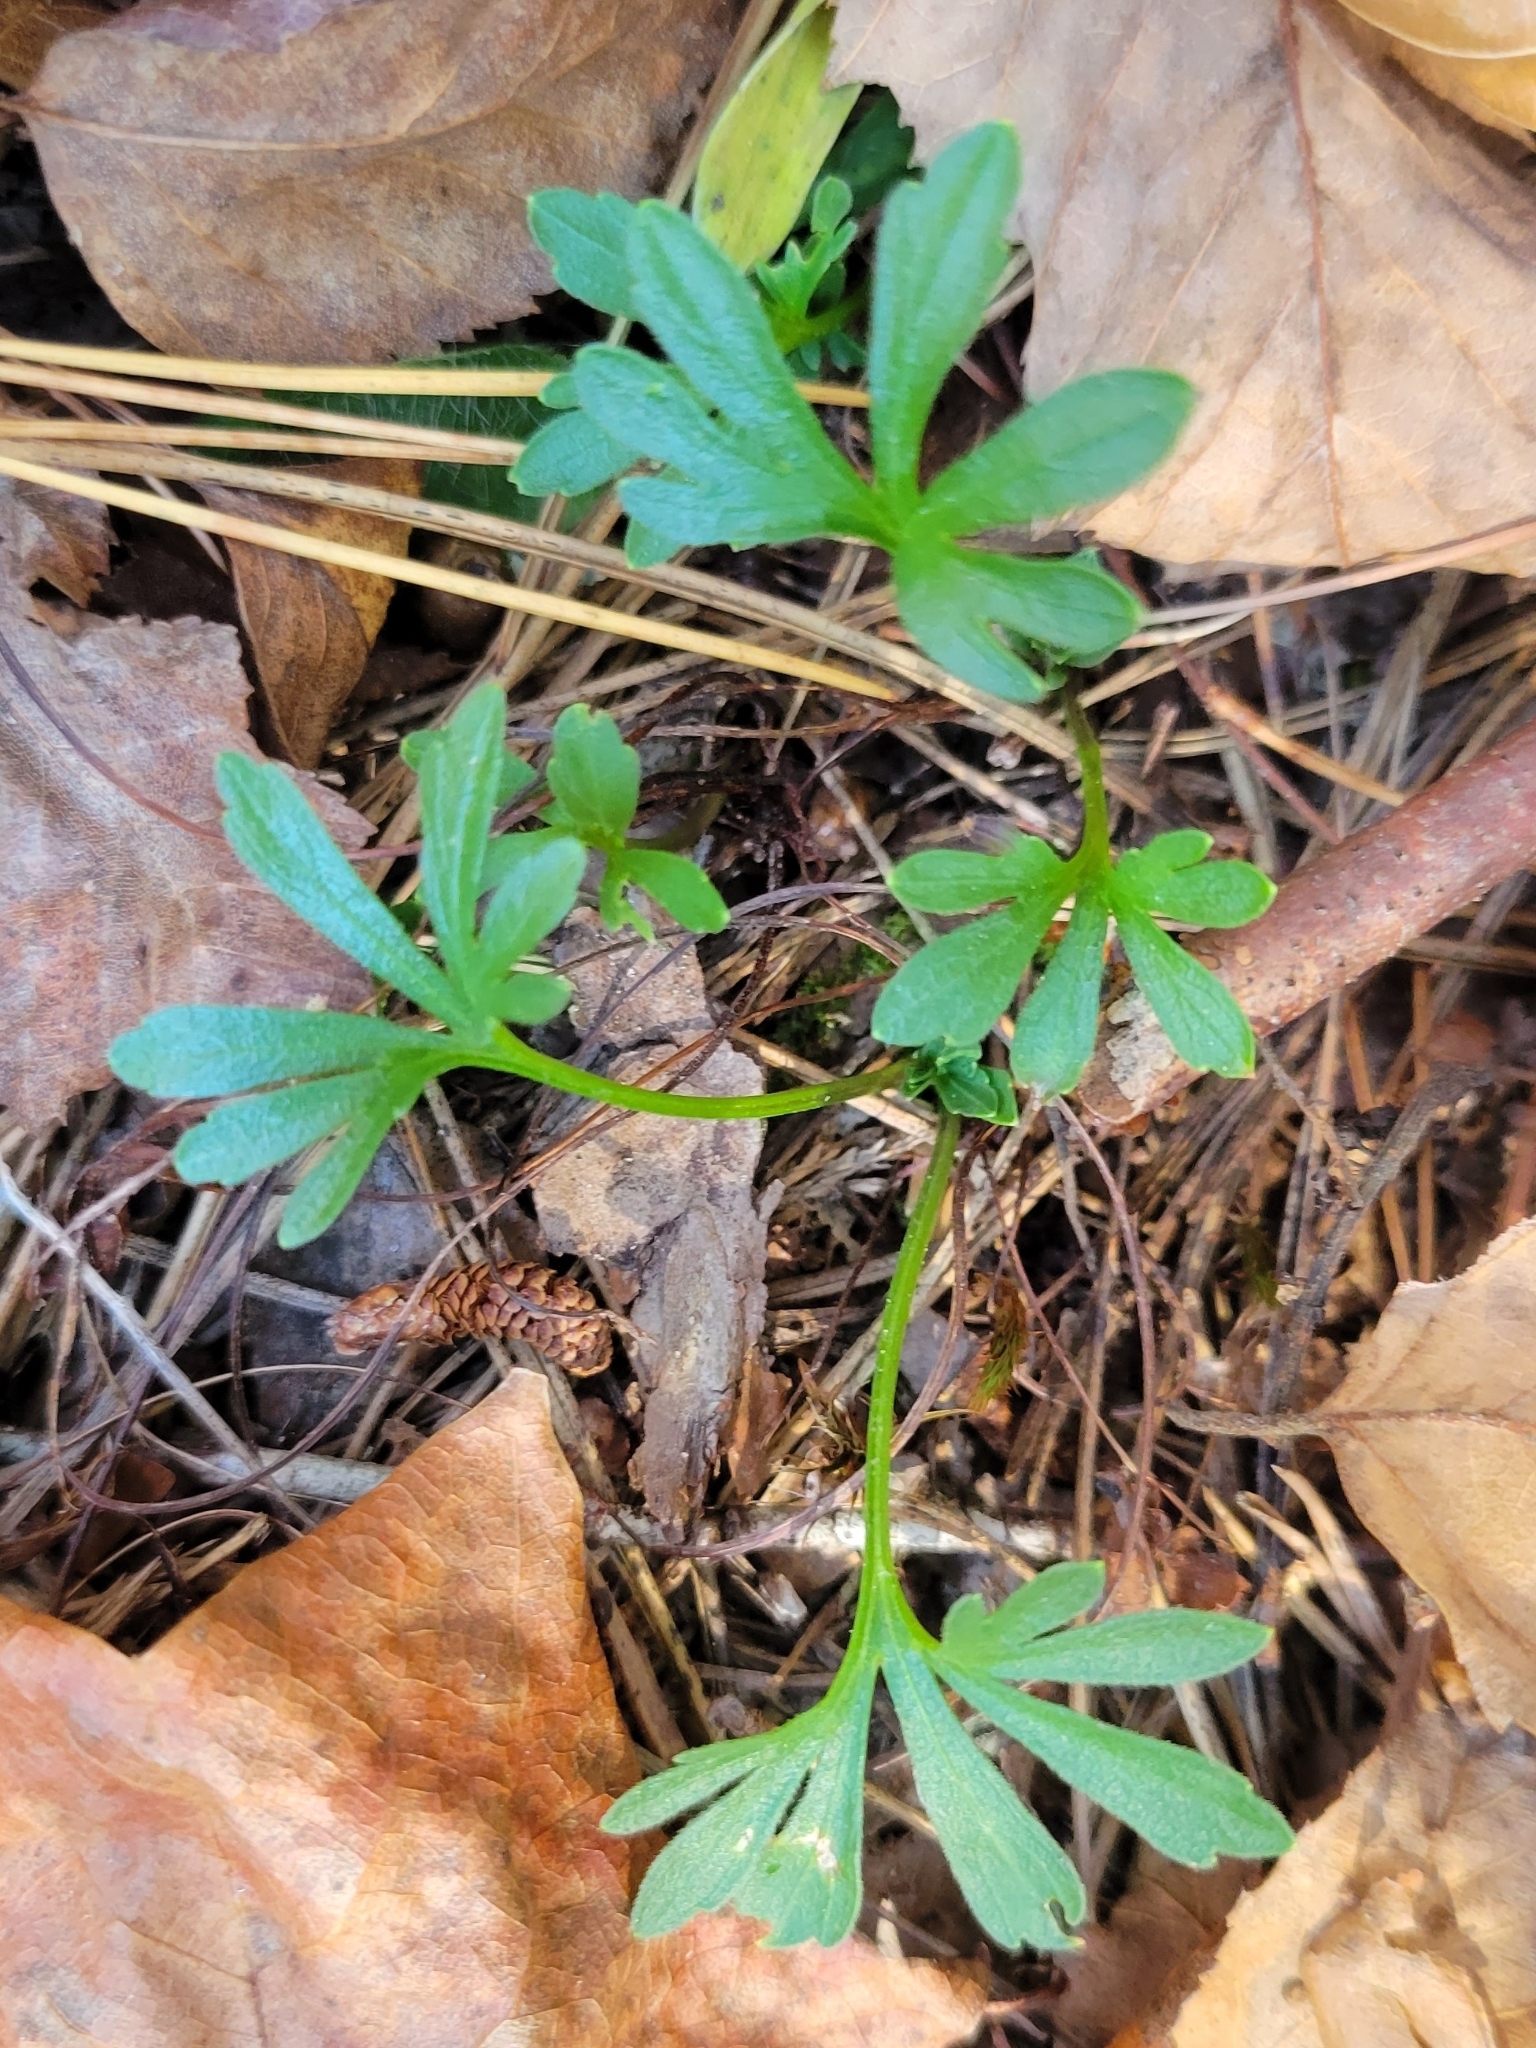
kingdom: Plantae
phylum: Tracheophyta
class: Magnoliopsida
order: Malpighiales
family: Violaceae
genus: Viola
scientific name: Viola pedata
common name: Pansy violet
